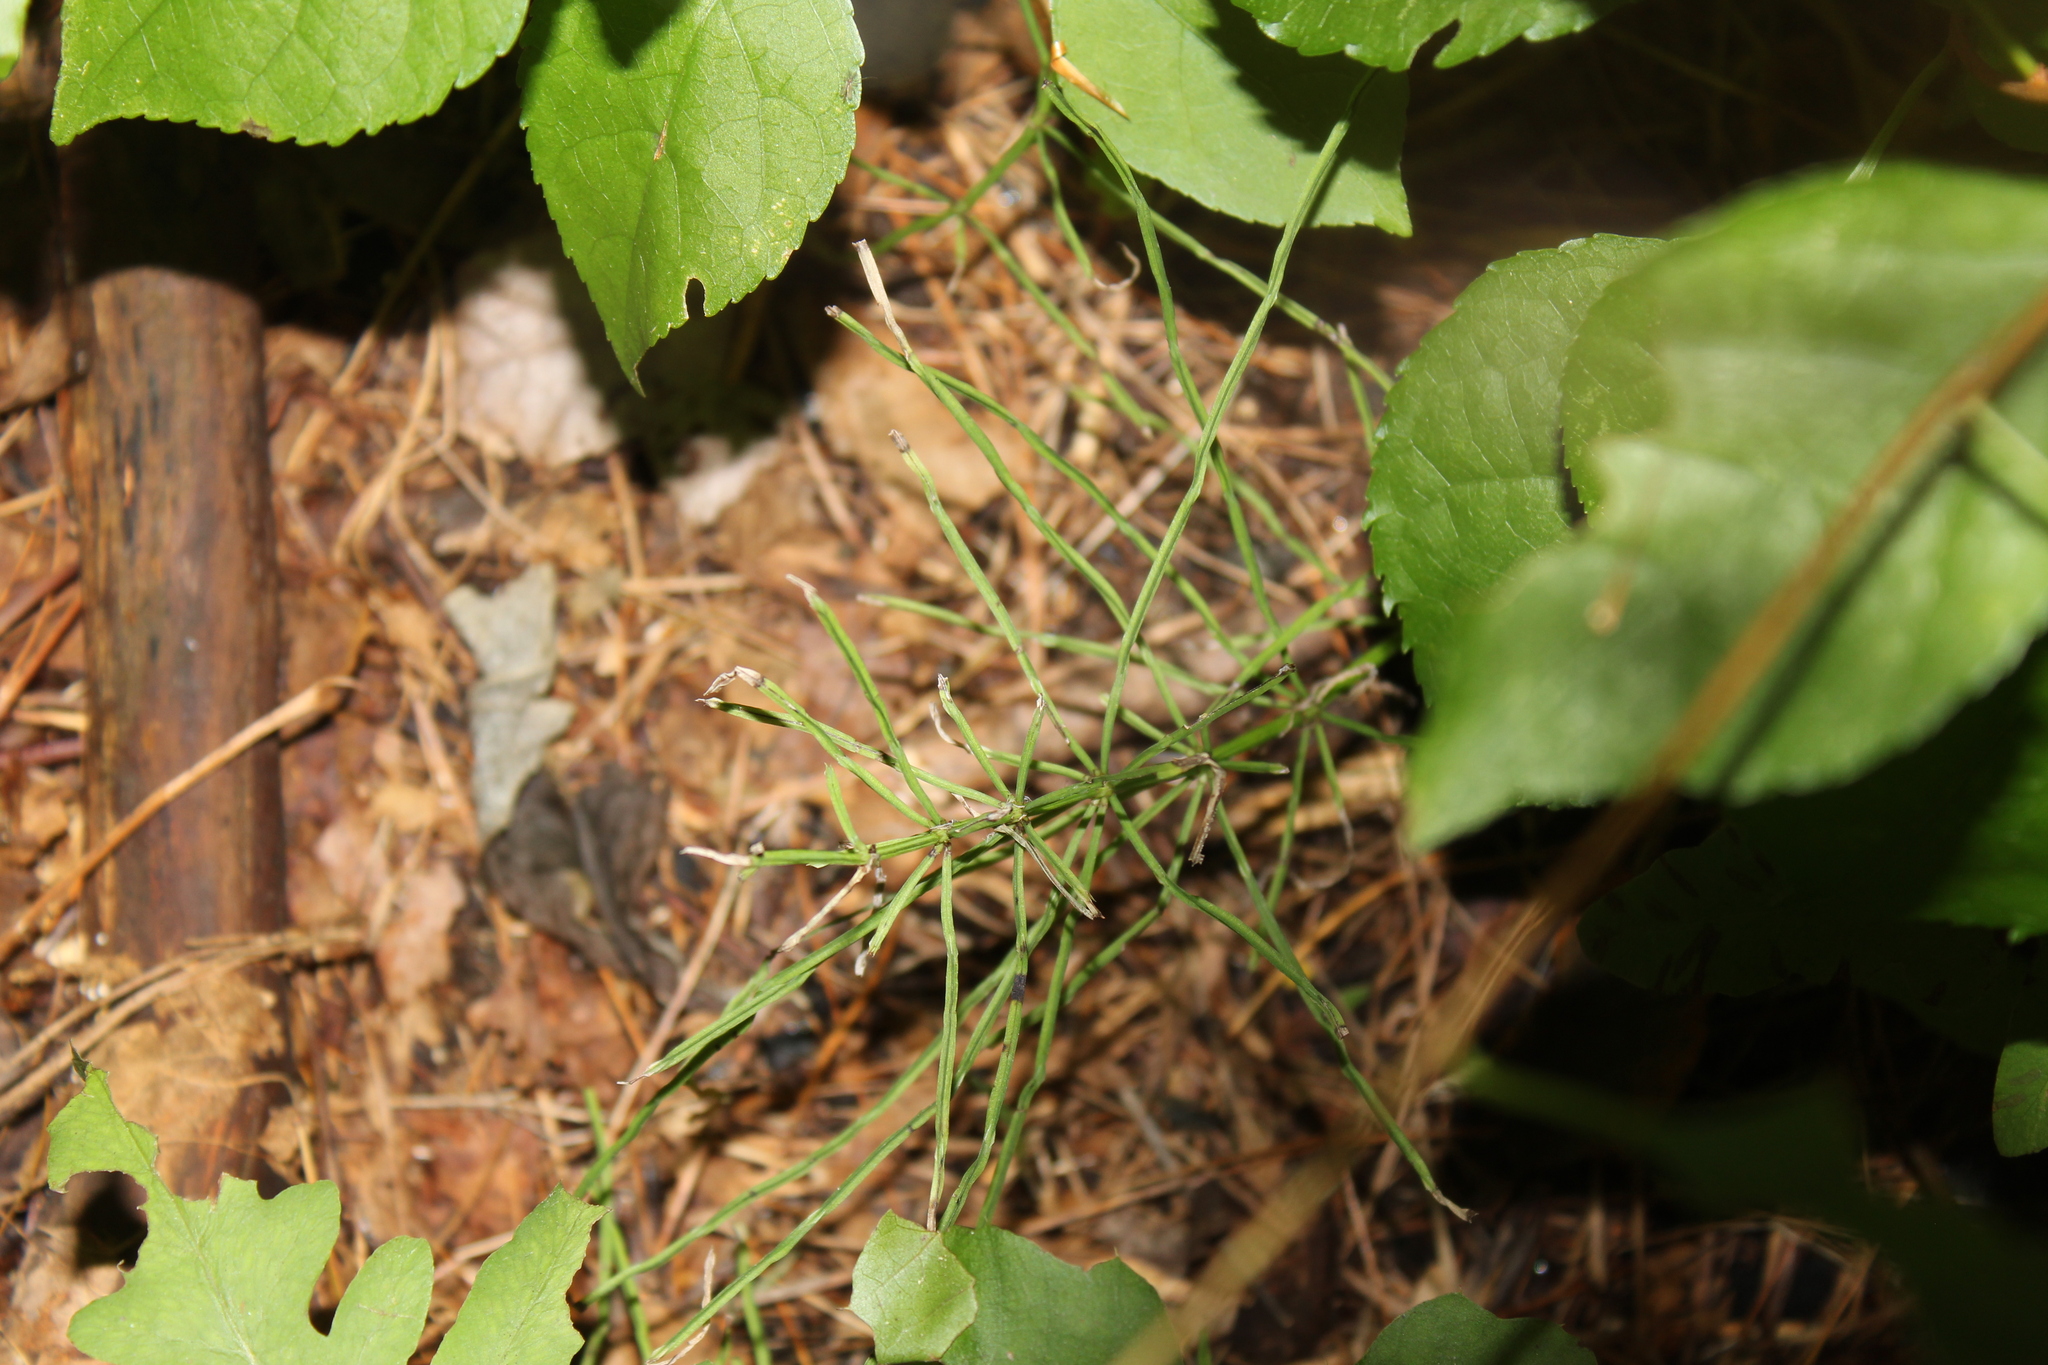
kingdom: Plantae
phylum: Tracheophyta
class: Polypodiopsida
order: Equisetales
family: Equisetaceae
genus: Equisetum
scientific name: Equisetum arvense
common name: Field horsetail
